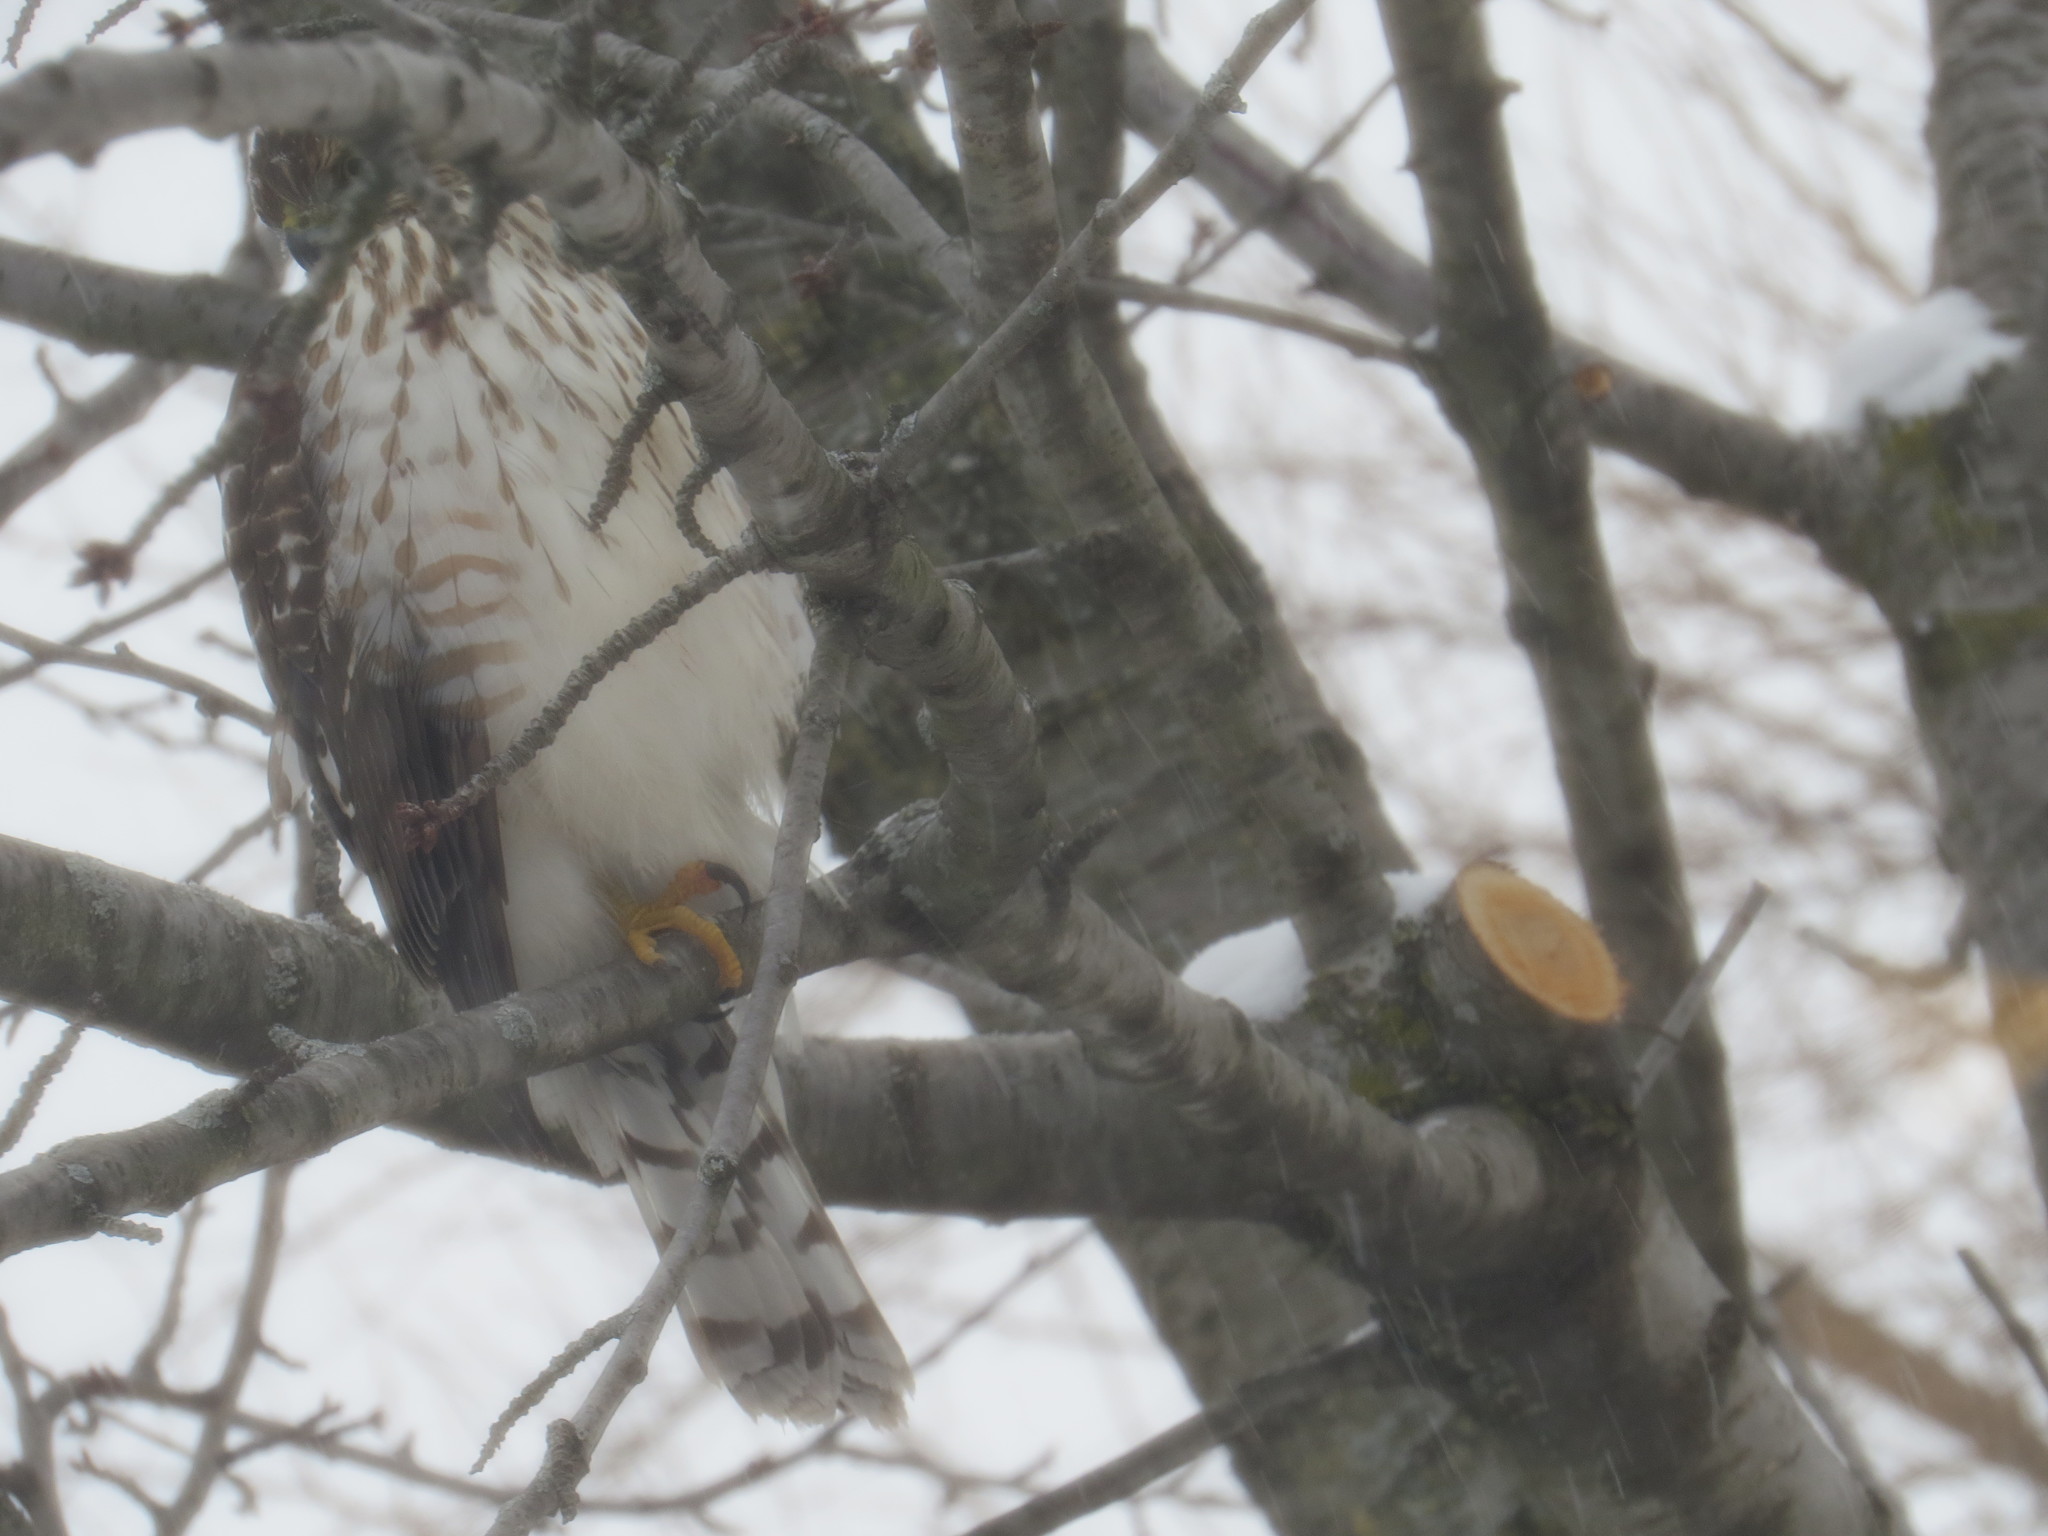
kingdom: Animalia
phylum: Chordata
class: Aves
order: Accipitriformes
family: Accipitridae
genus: Accipiter
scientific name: Accipiter cooperii
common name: Cooper's hawk
